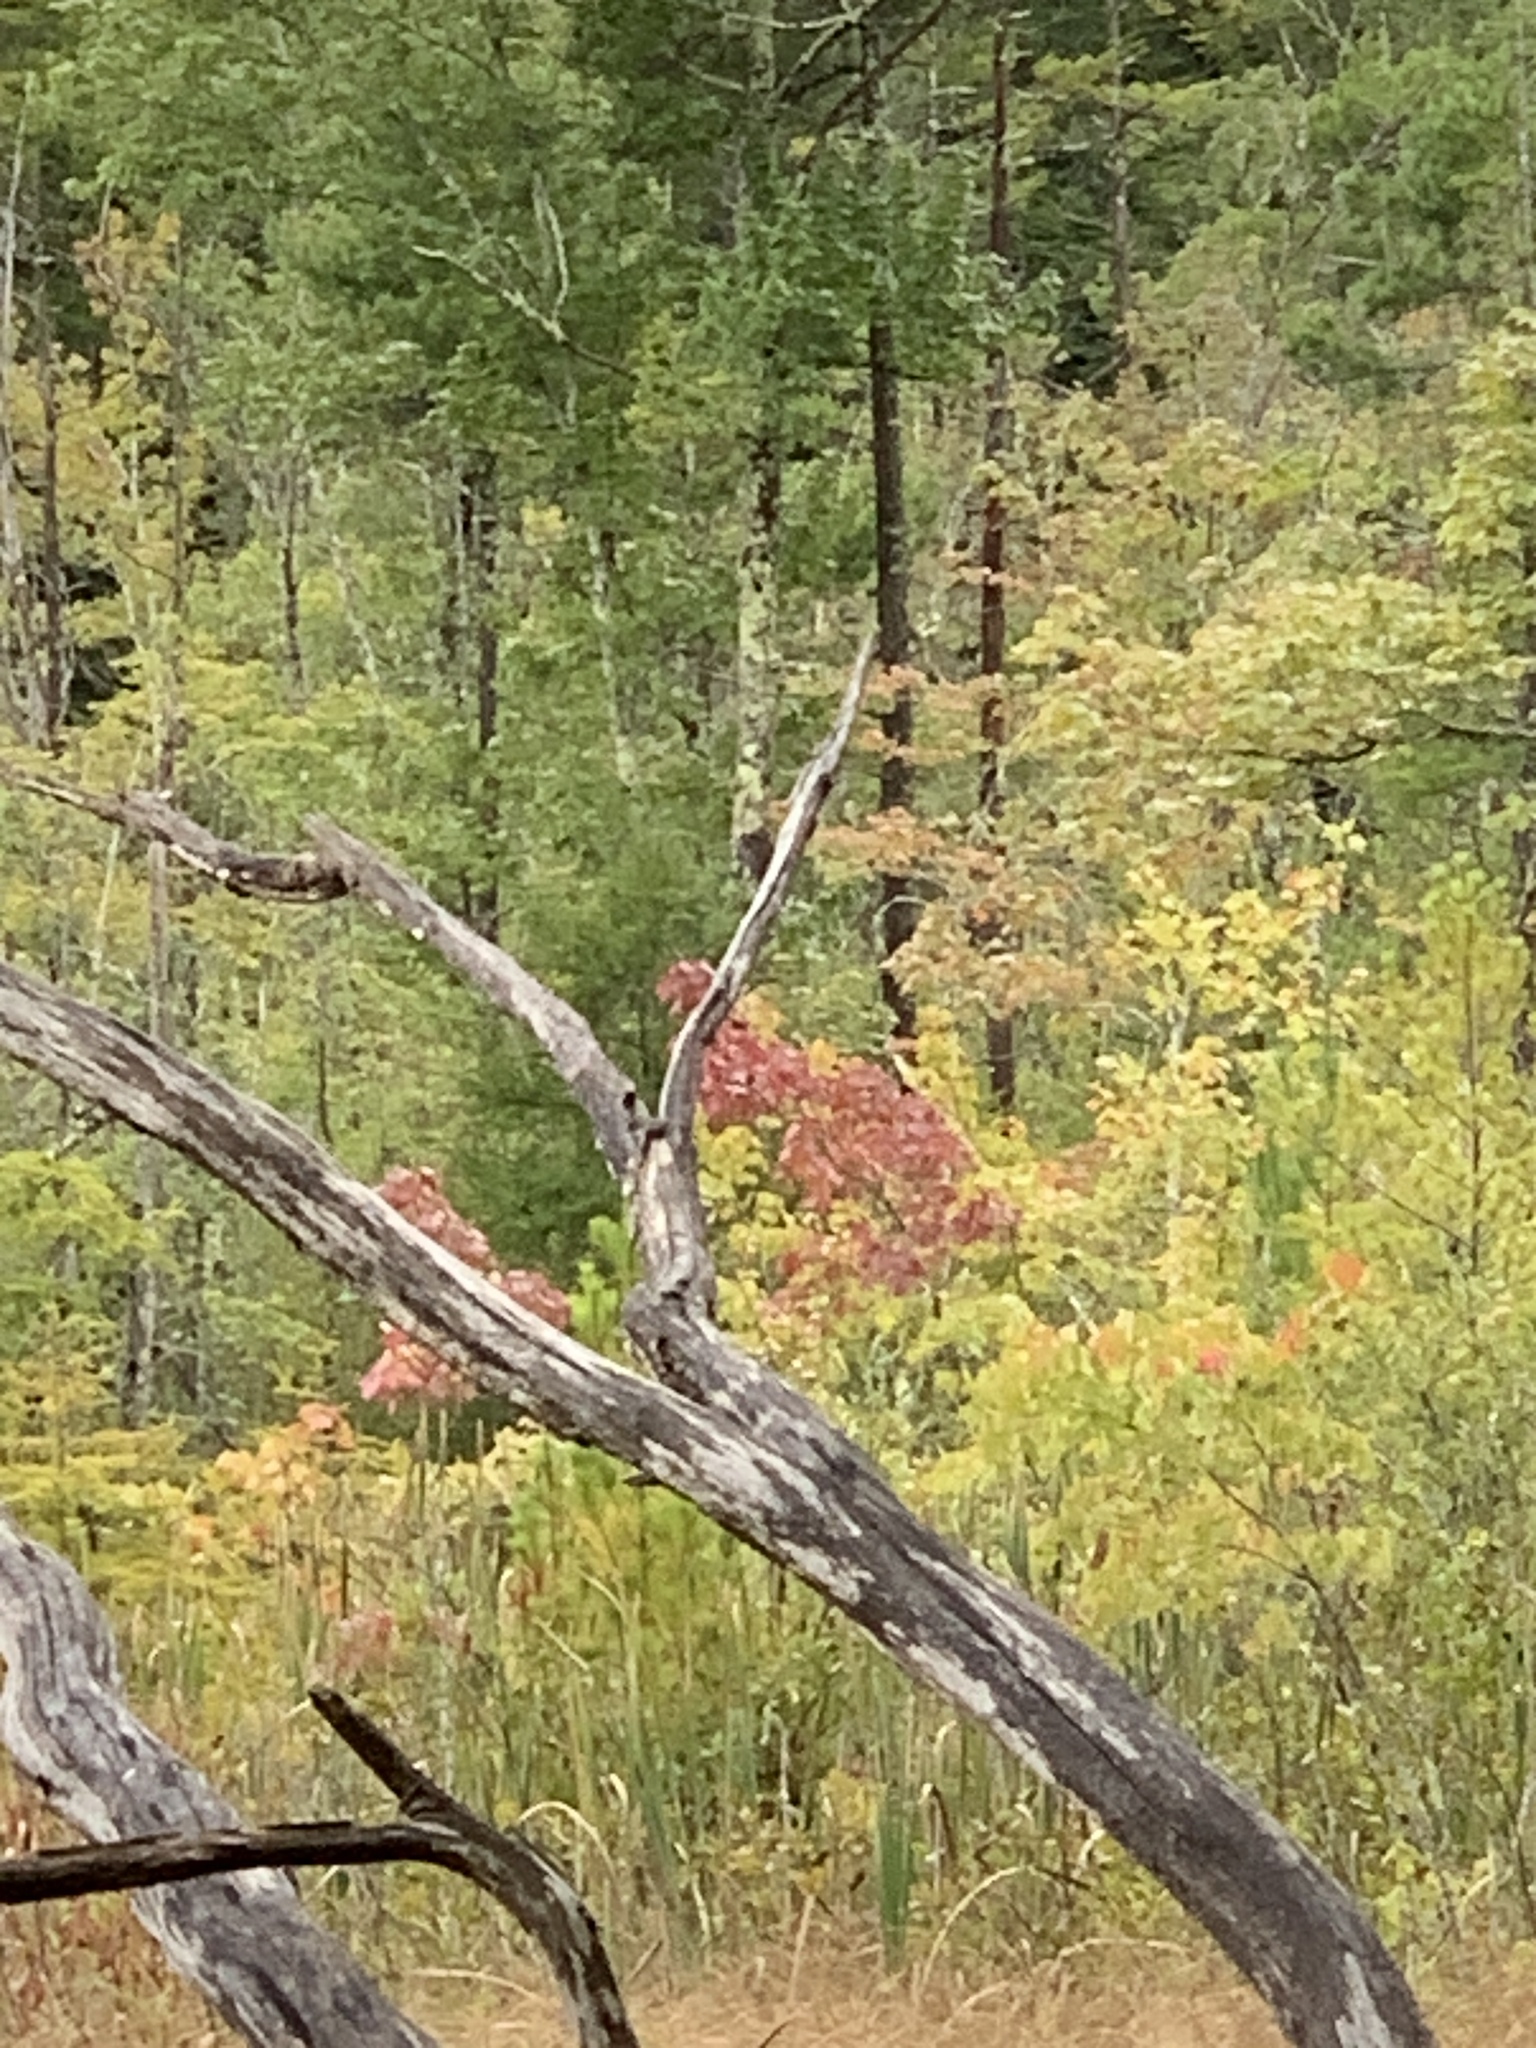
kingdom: Plantae
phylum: Tracheophyta
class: Magnoliopsida
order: Sapindales
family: Sapindaceae
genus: Acer
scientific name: Acer rubrum
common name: Red maple
